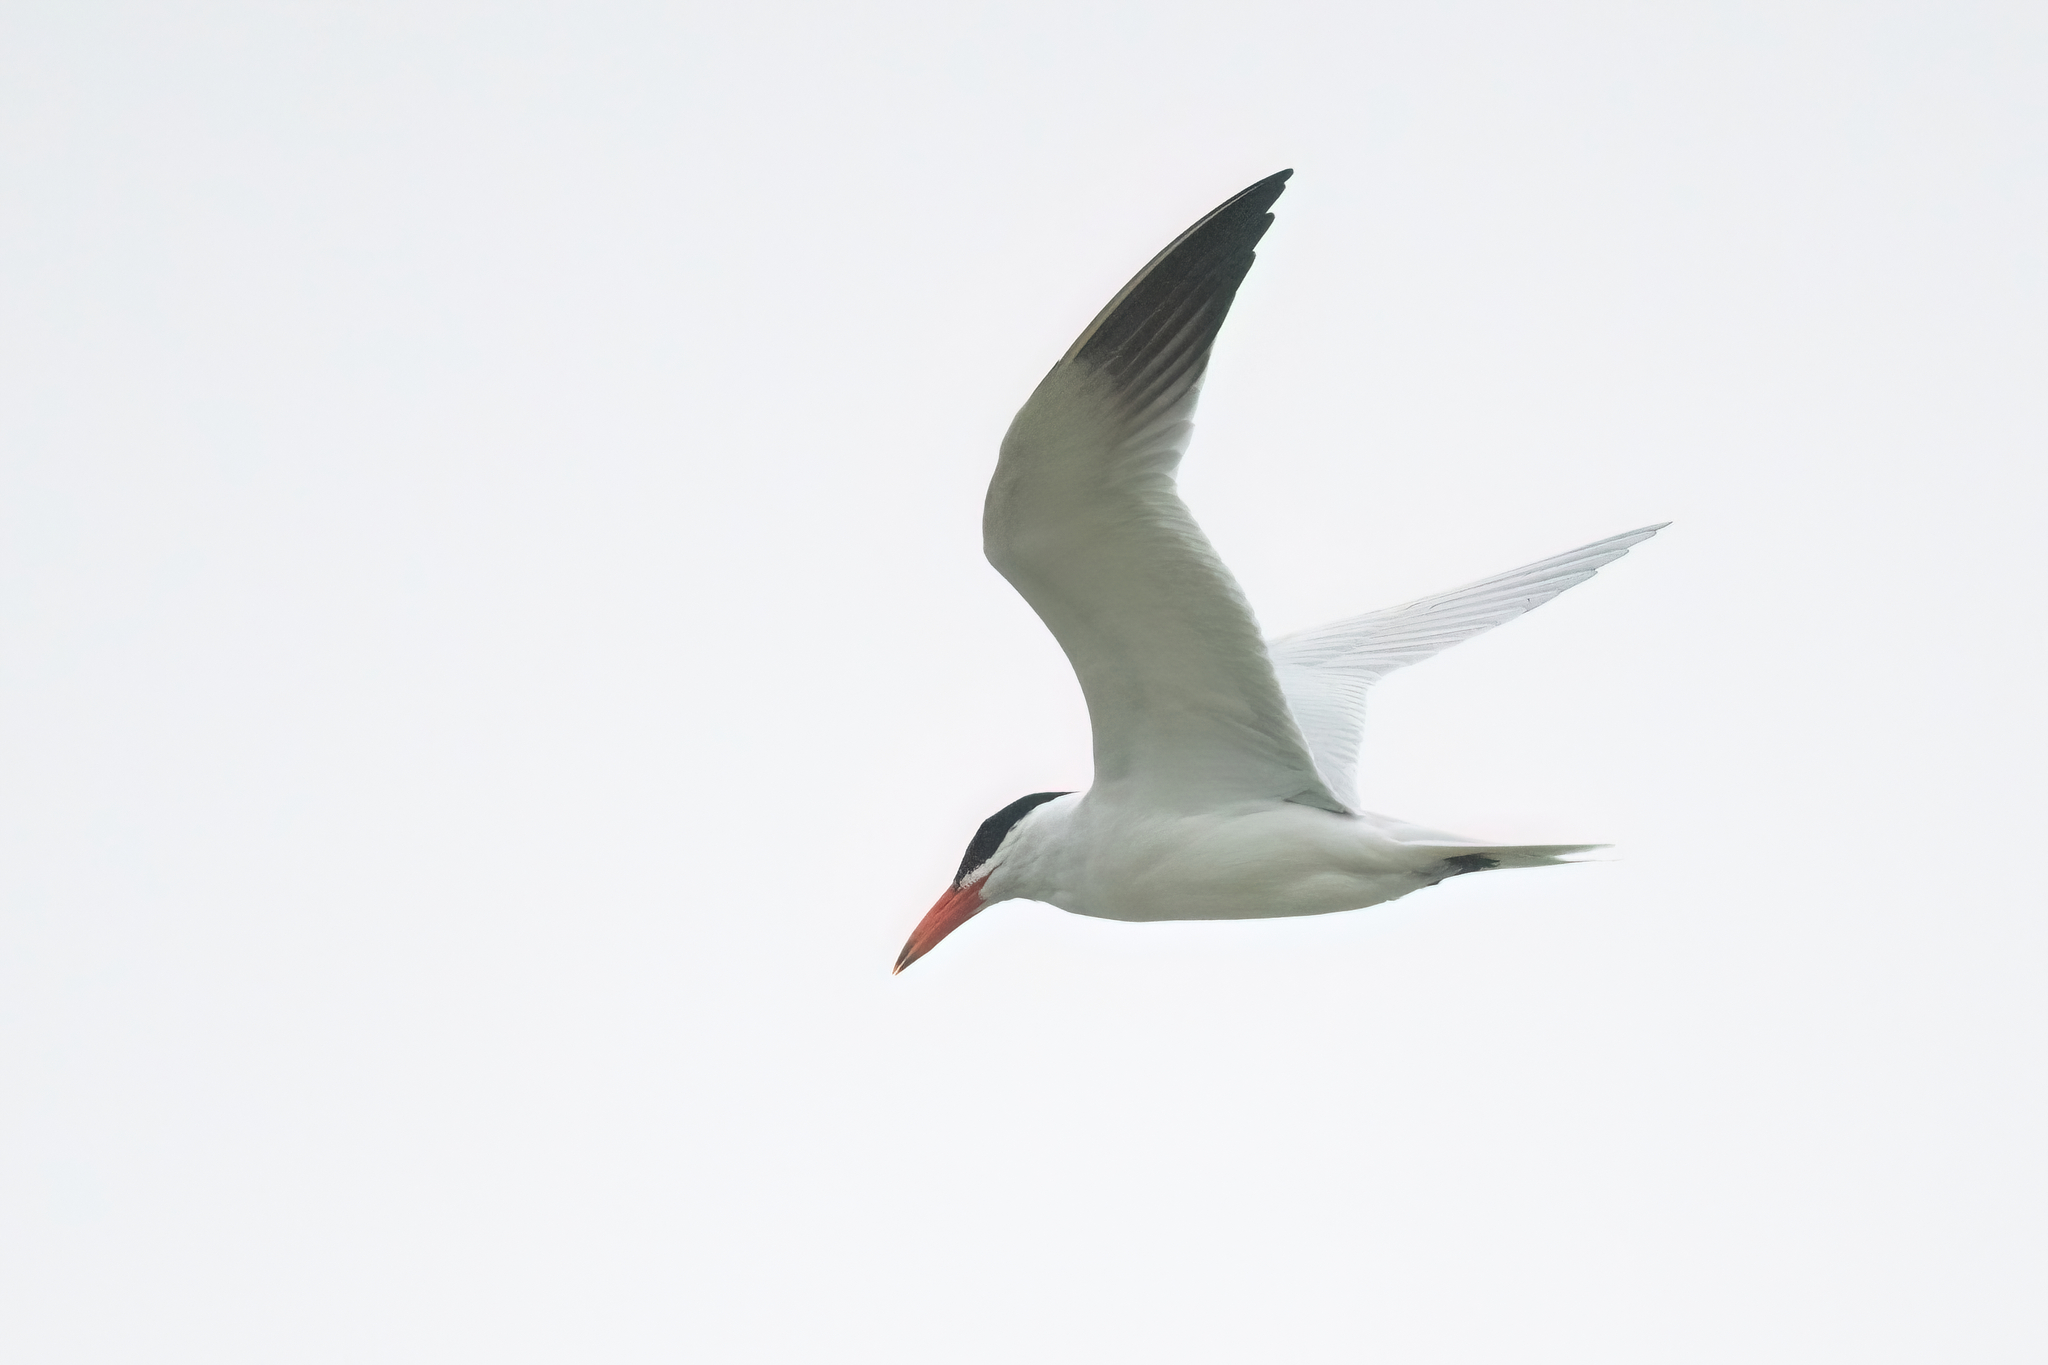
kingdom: Animalia
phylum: Chordata
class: Aves
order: Charadriiformes
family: Laridae
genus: Hydroprogne
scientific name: Hydroprogne caspia
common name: Caspian tern
